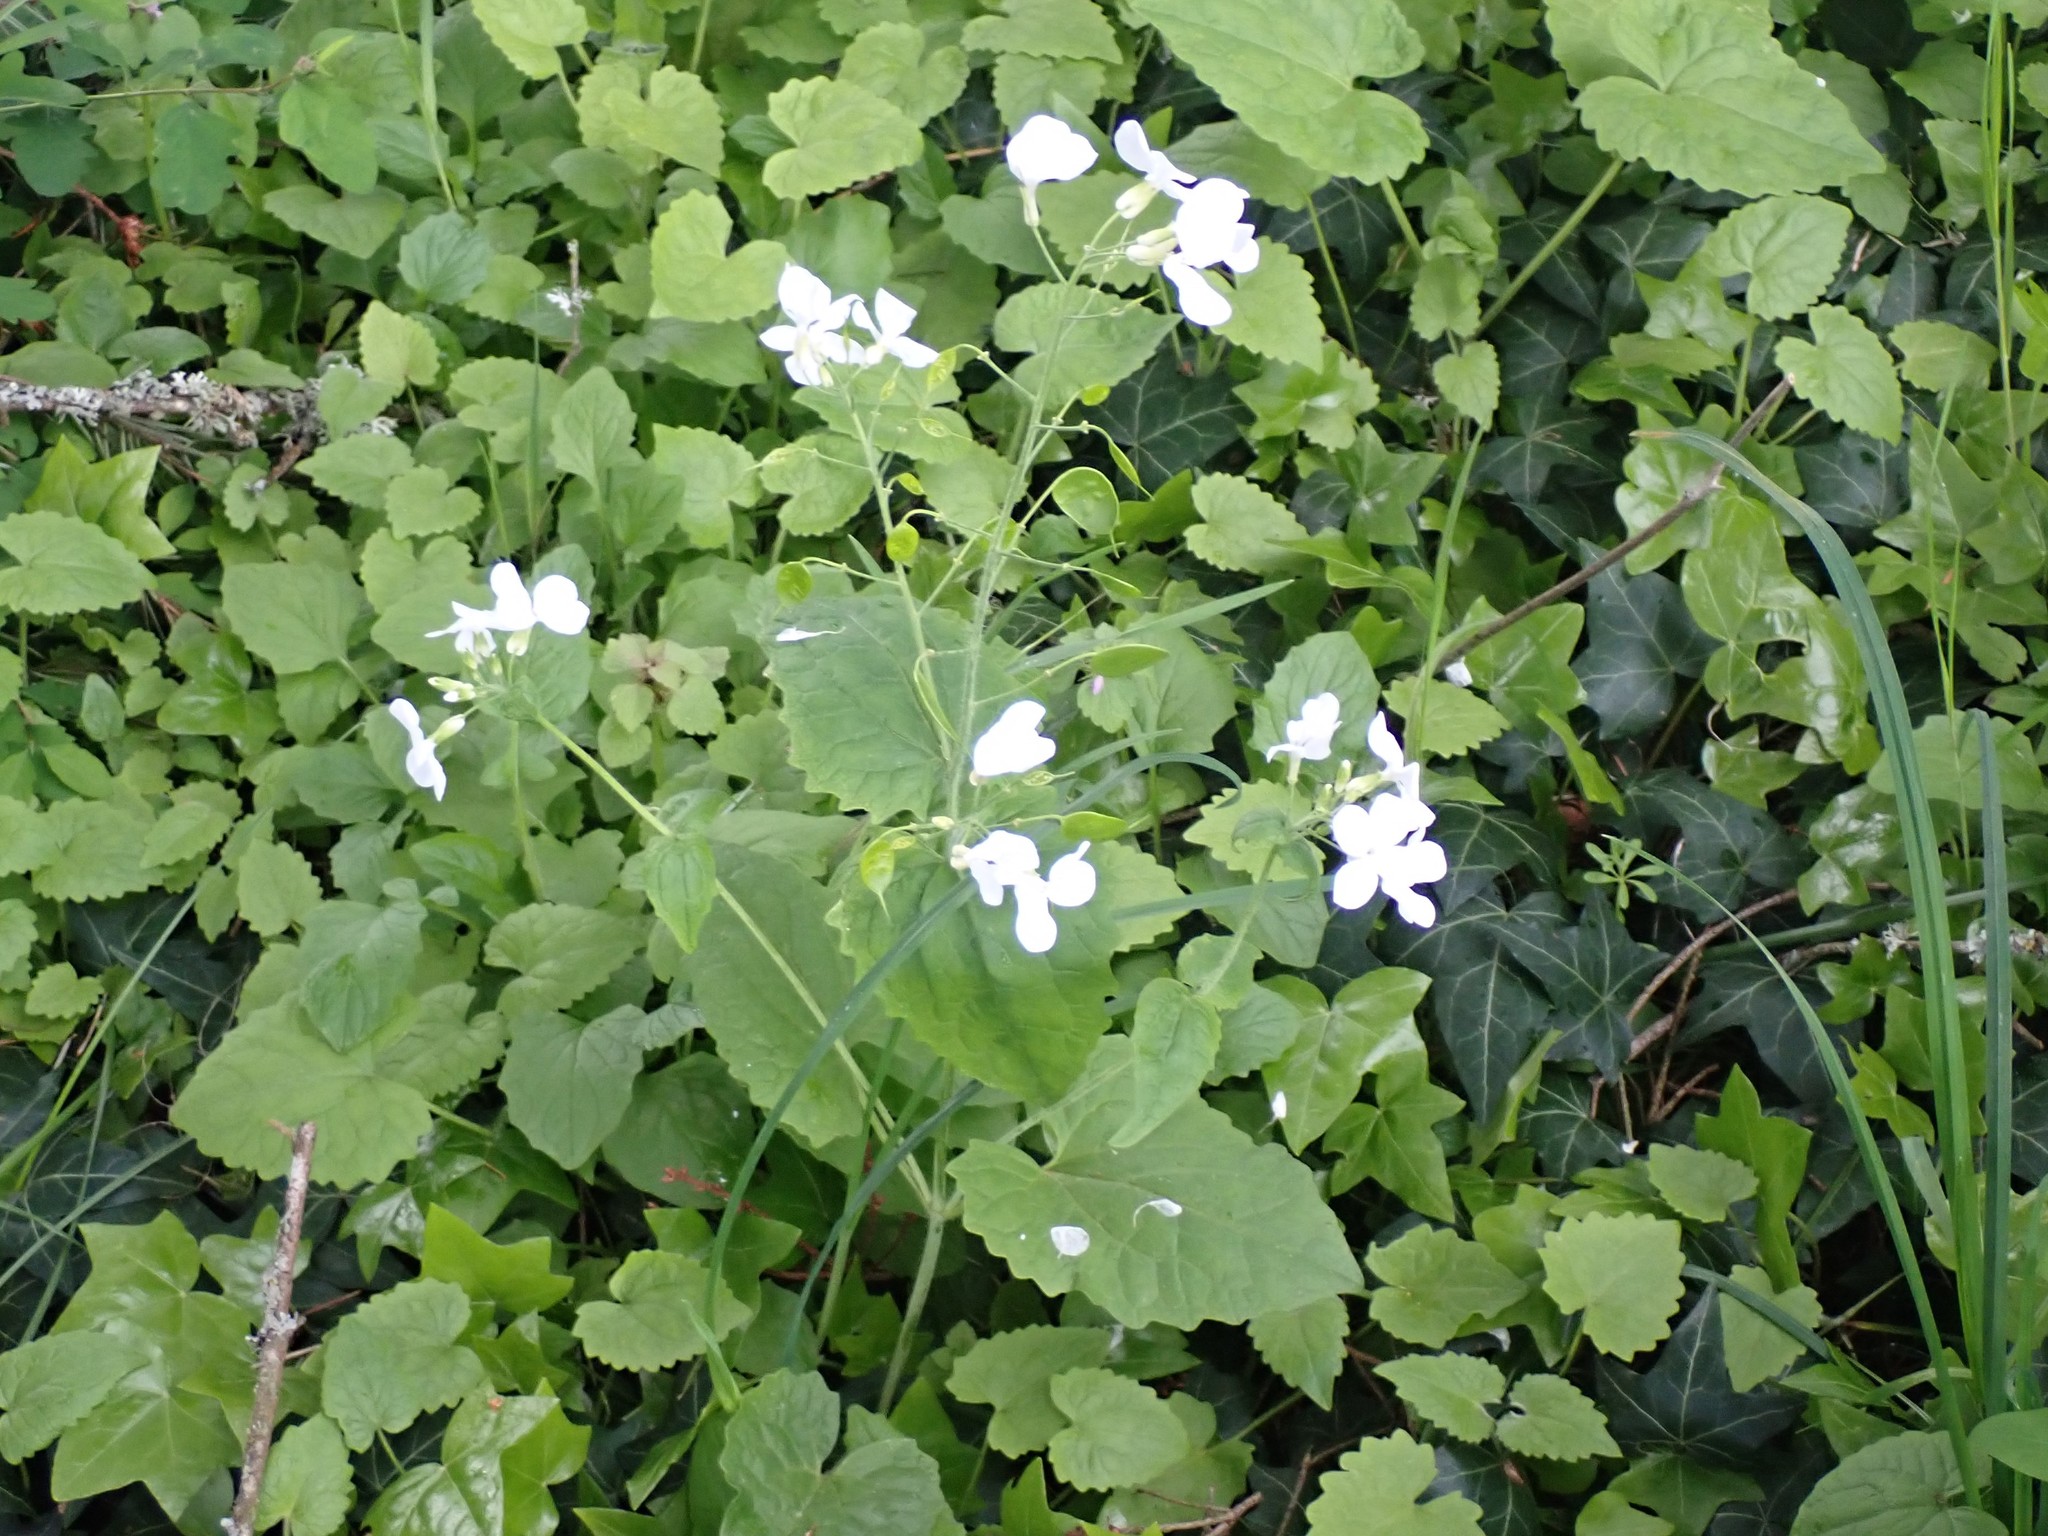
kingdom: Plantae
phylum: Tracheophyta
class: Magnoliopsida
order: Brassicales
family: Brassicaceae
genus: Lunaria
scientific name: Lunaria annua
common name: Honesty
